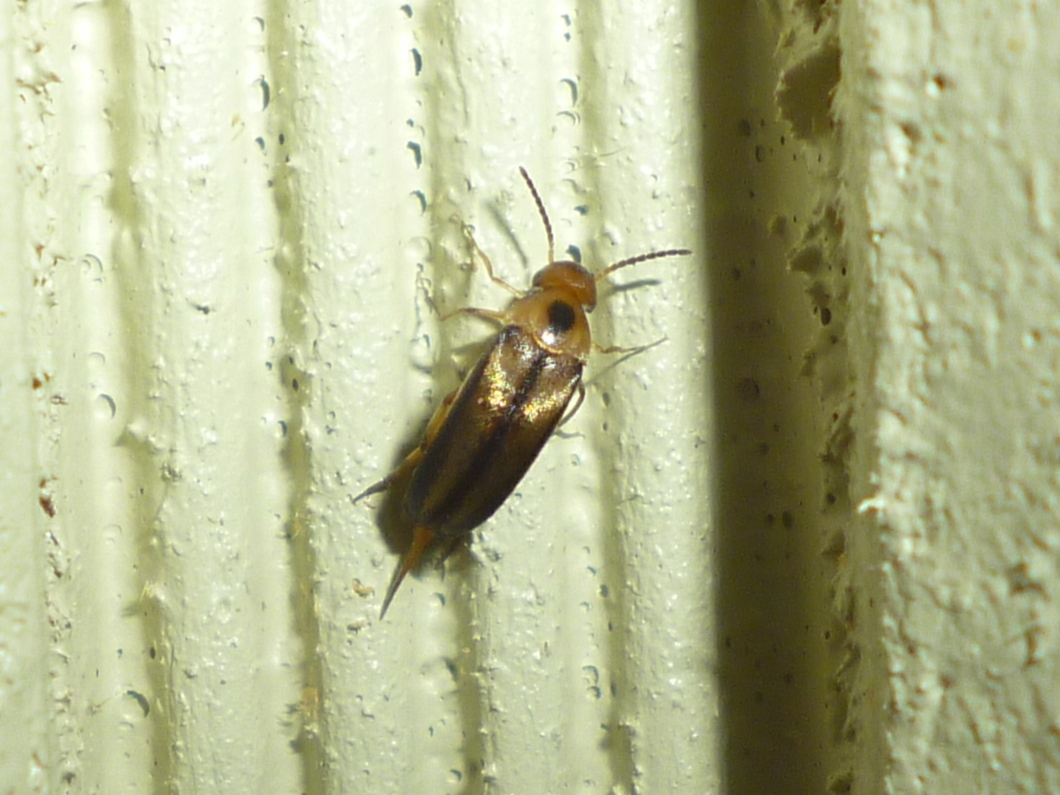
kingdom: Animalia
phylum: Arthropoda
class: Insecta
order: Coleoptera
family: Mordellidae
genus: Mordellistena
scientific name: Mordellistena limbalis
